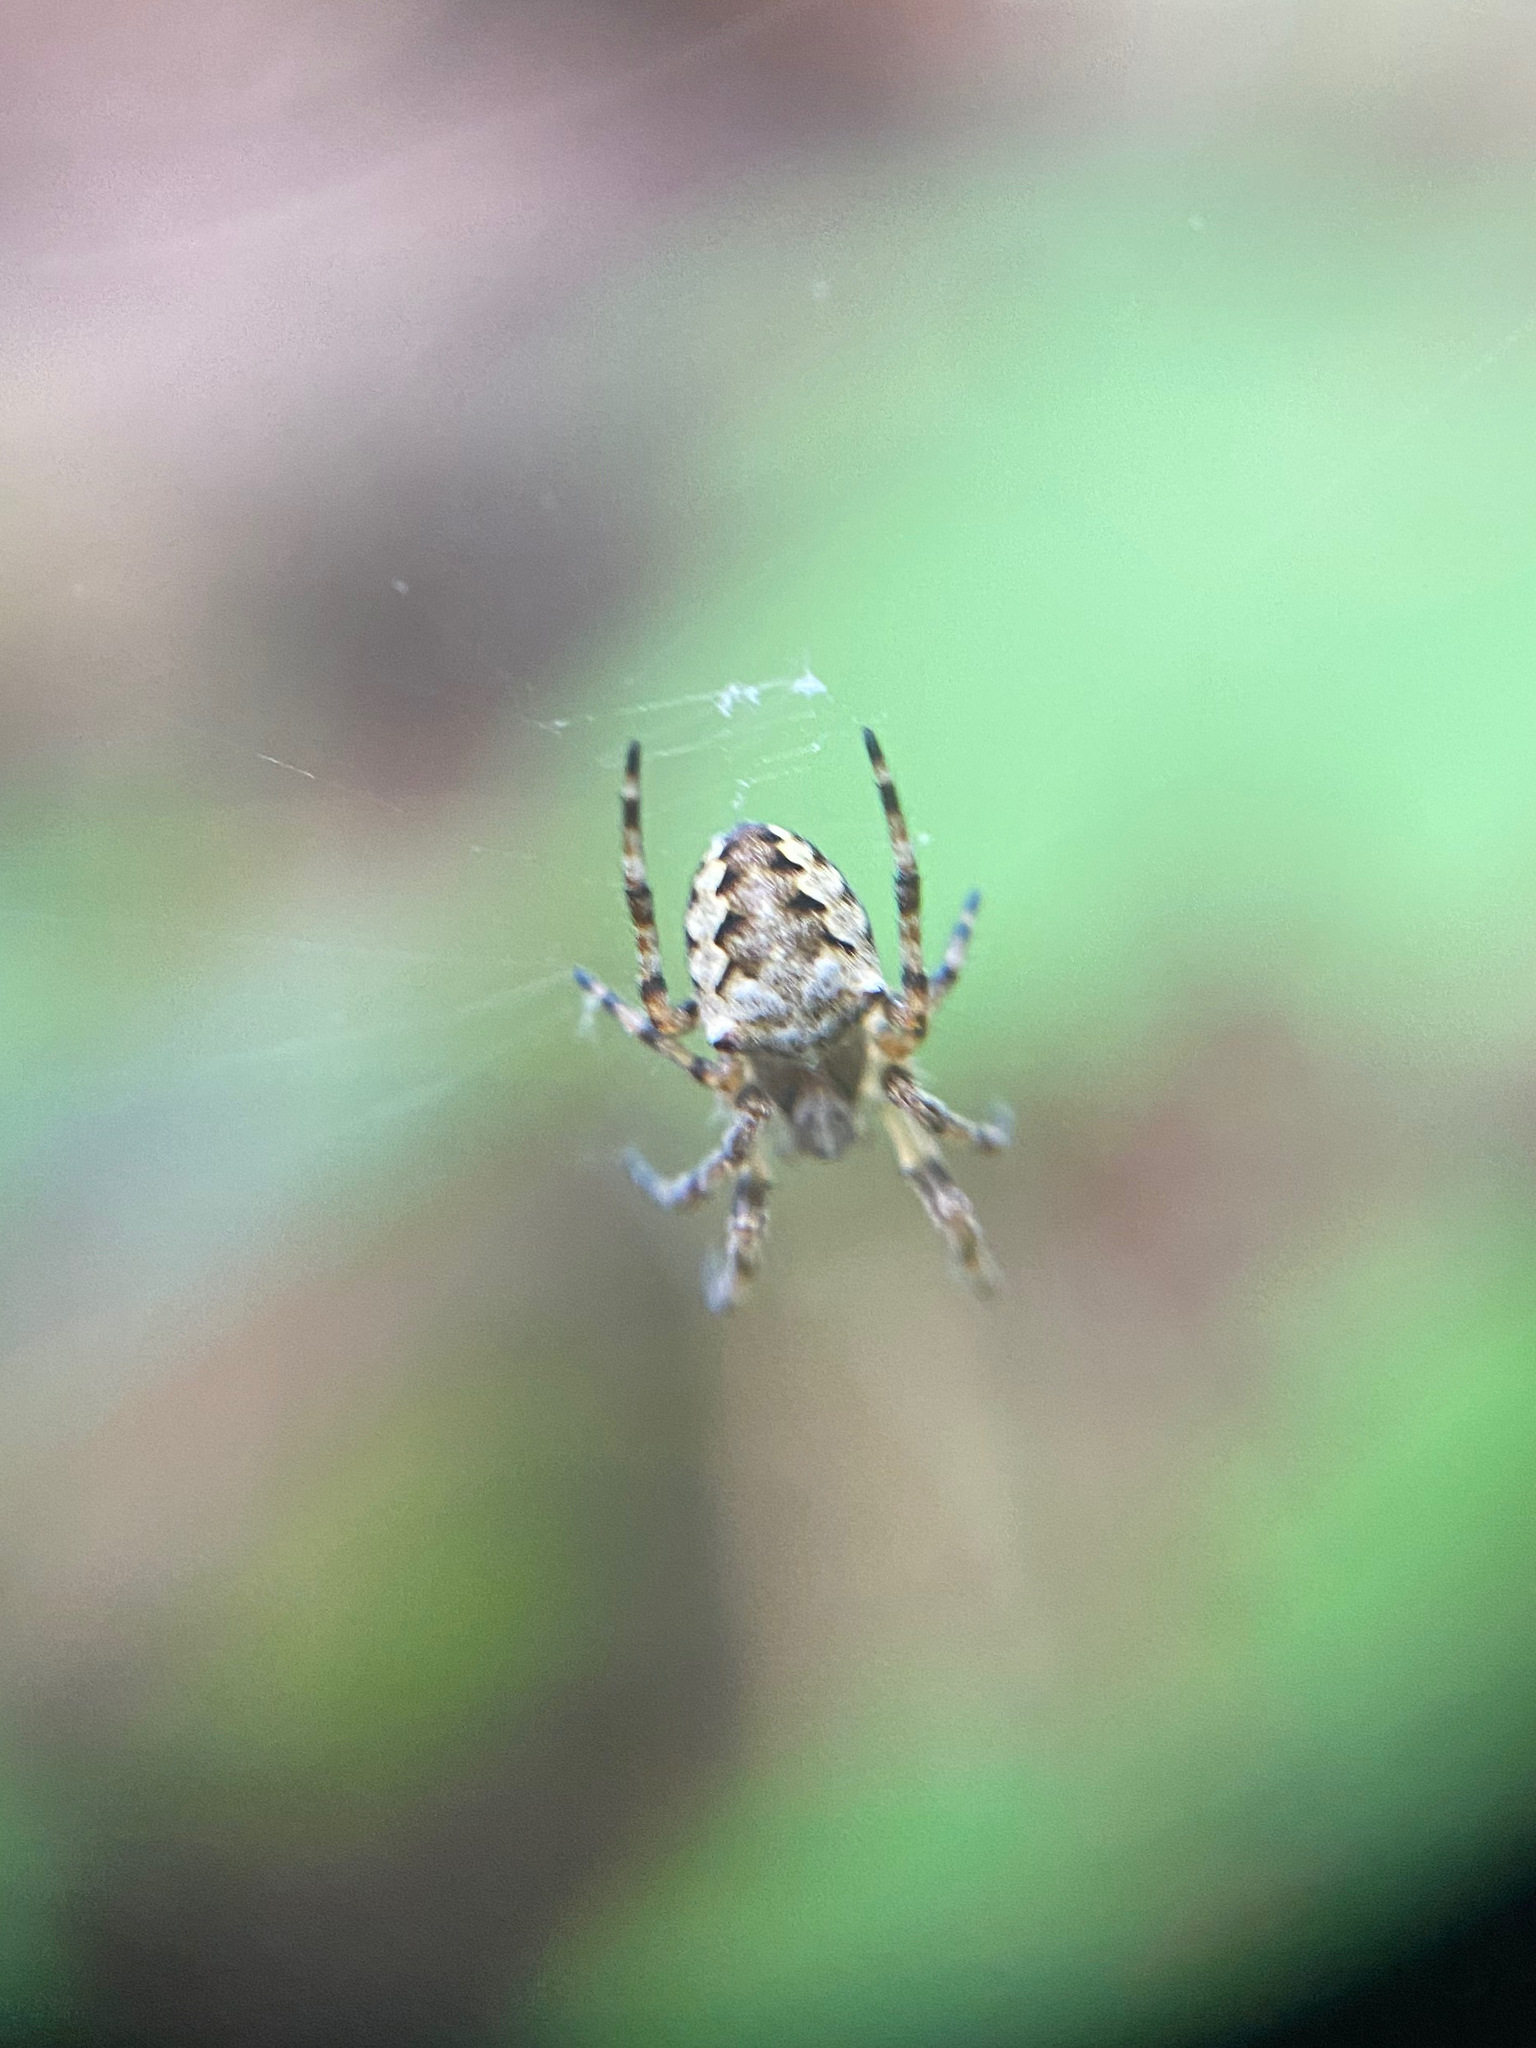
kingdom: Animalia
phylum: Arthropoda
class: Arachnida
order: Araneae
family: Araneidae
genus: Araneus
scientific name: Araneus nordmanni
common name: Nordmann's orbweaver
